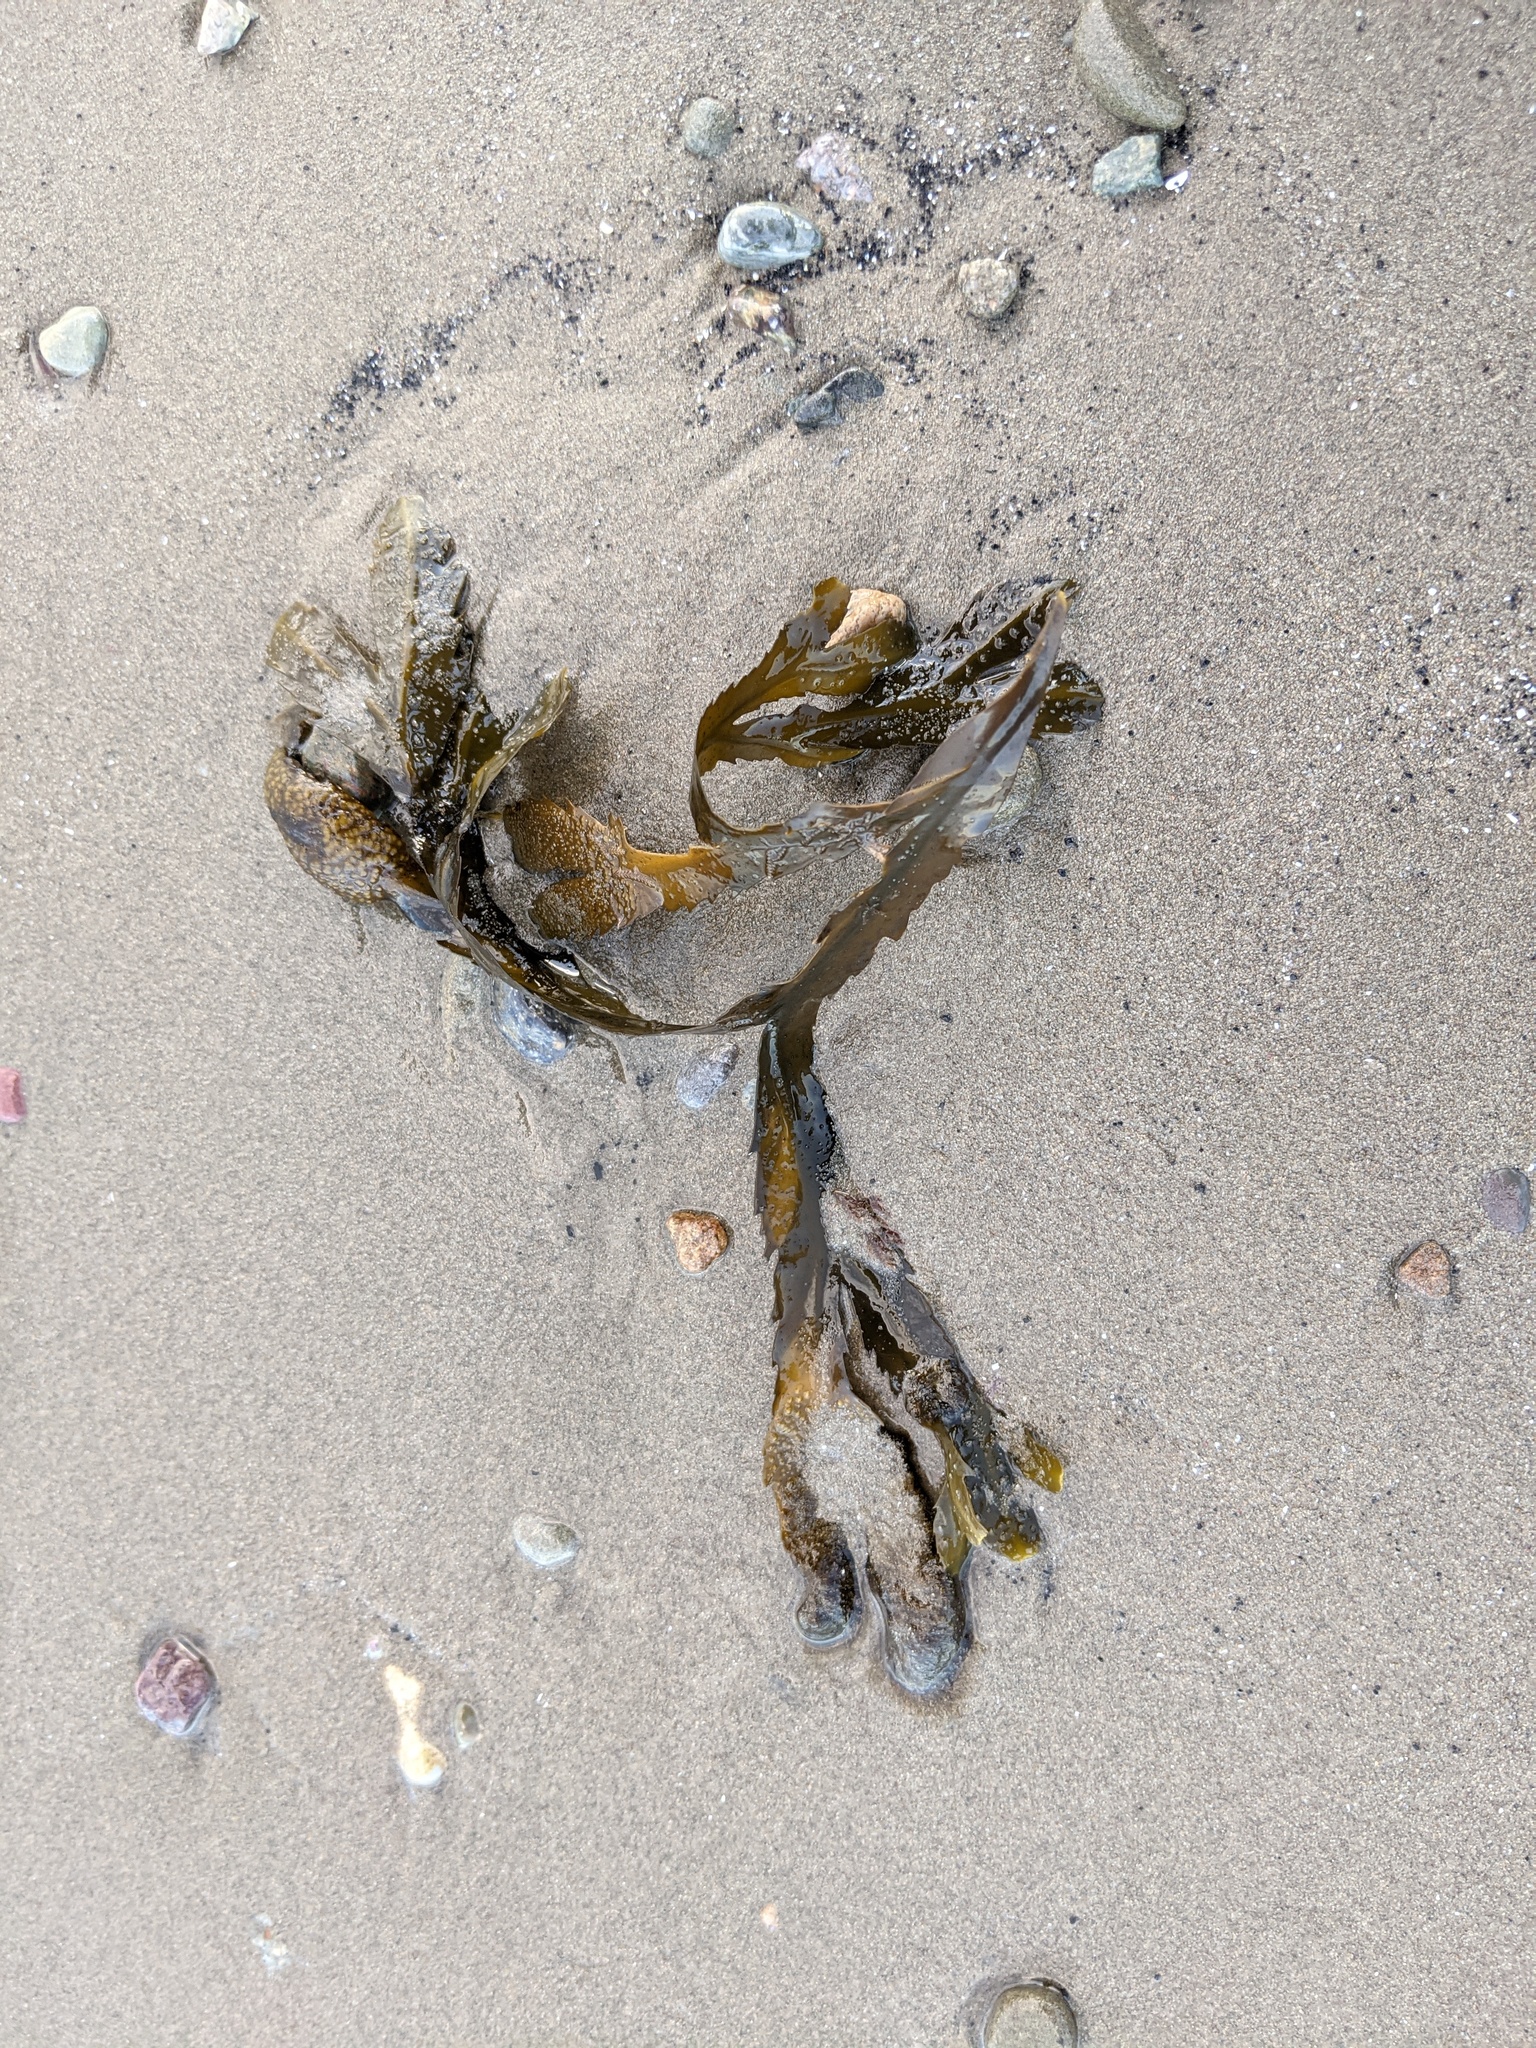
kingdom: Chromista
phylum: Ochrophyta
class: Phaeophyceae
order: Fucales
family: Fucaceae
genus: Fucus
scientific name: Fucus serratus
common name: Toothed wrack
